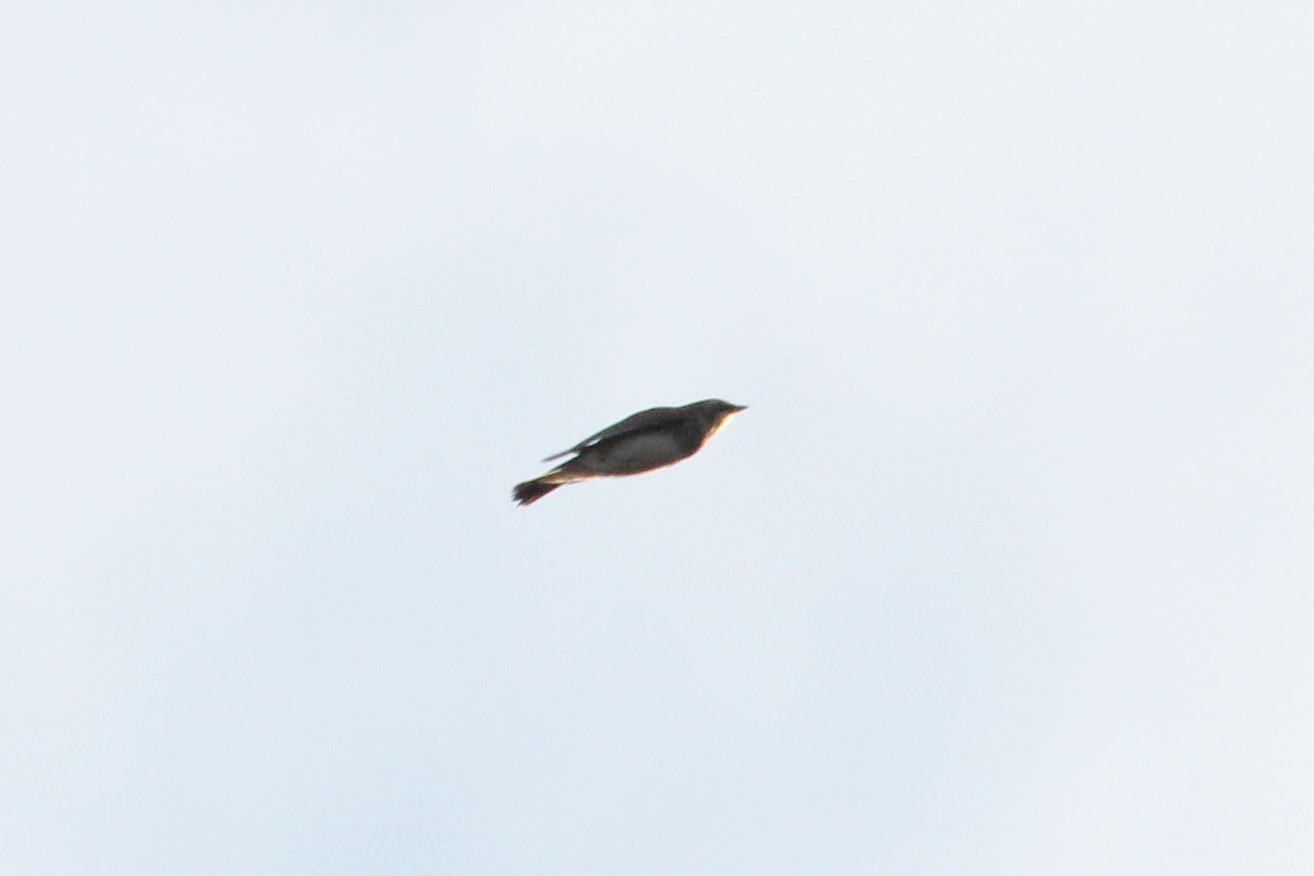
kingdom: Animalia
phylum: Chordata
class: Aves
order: Passeriformes
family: Alaudidae
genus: Eremophila
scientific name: Eremophila alpestris
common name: Horned lark
